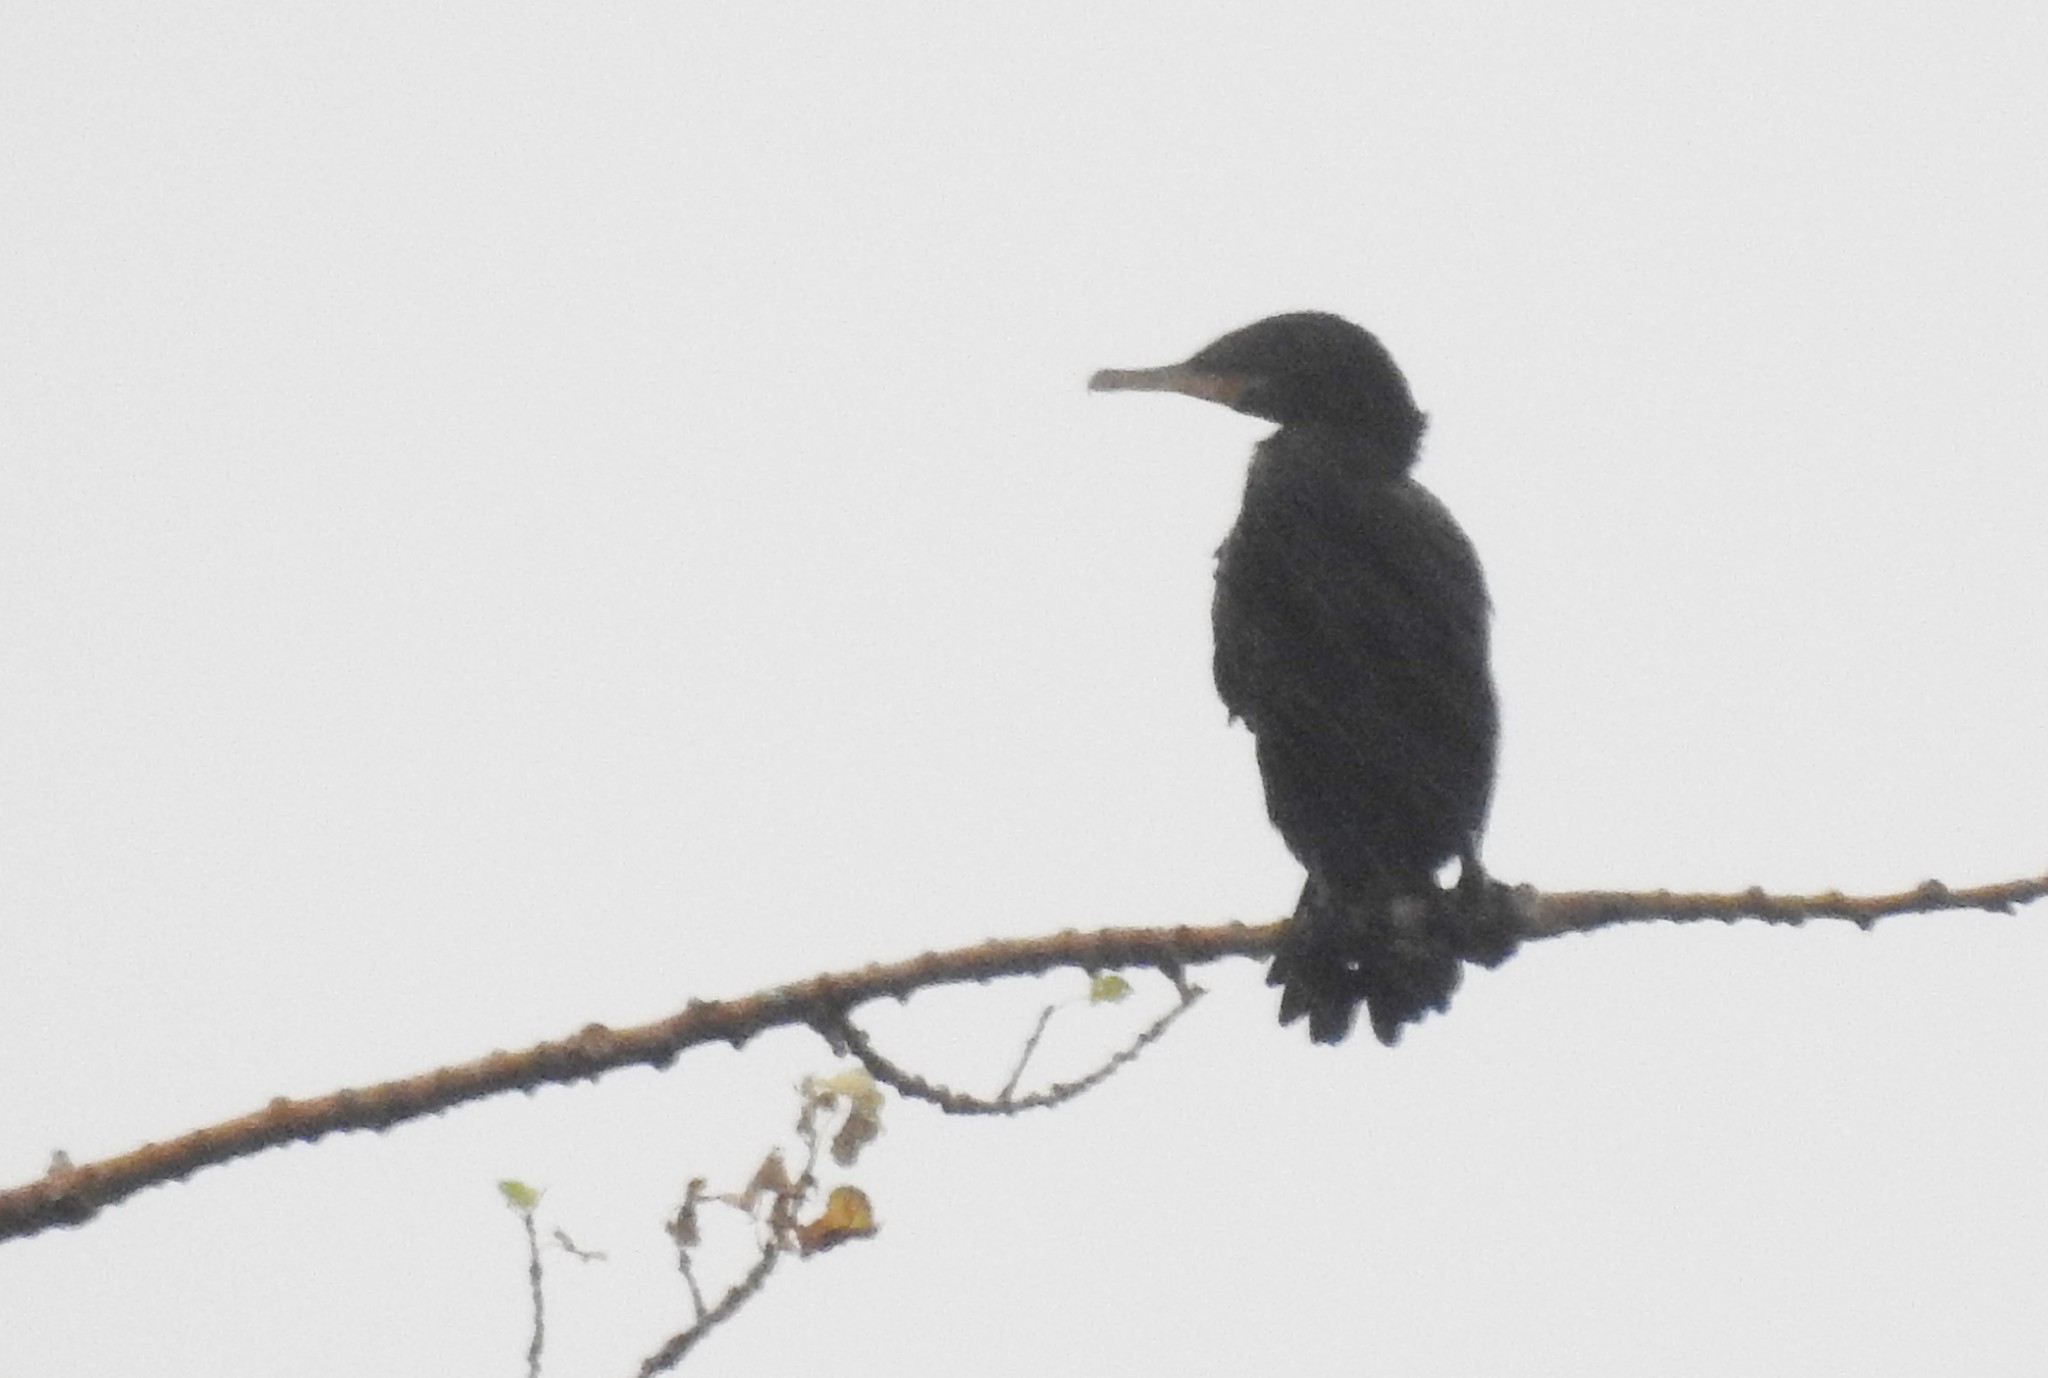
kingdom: Animalia
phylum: Chordata
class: Aves
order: Suliformes
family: Phalacrocoracidae
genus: Phalacrocorax
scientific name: Phalacrocorax brasilianus
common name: Neotropic cormorant
